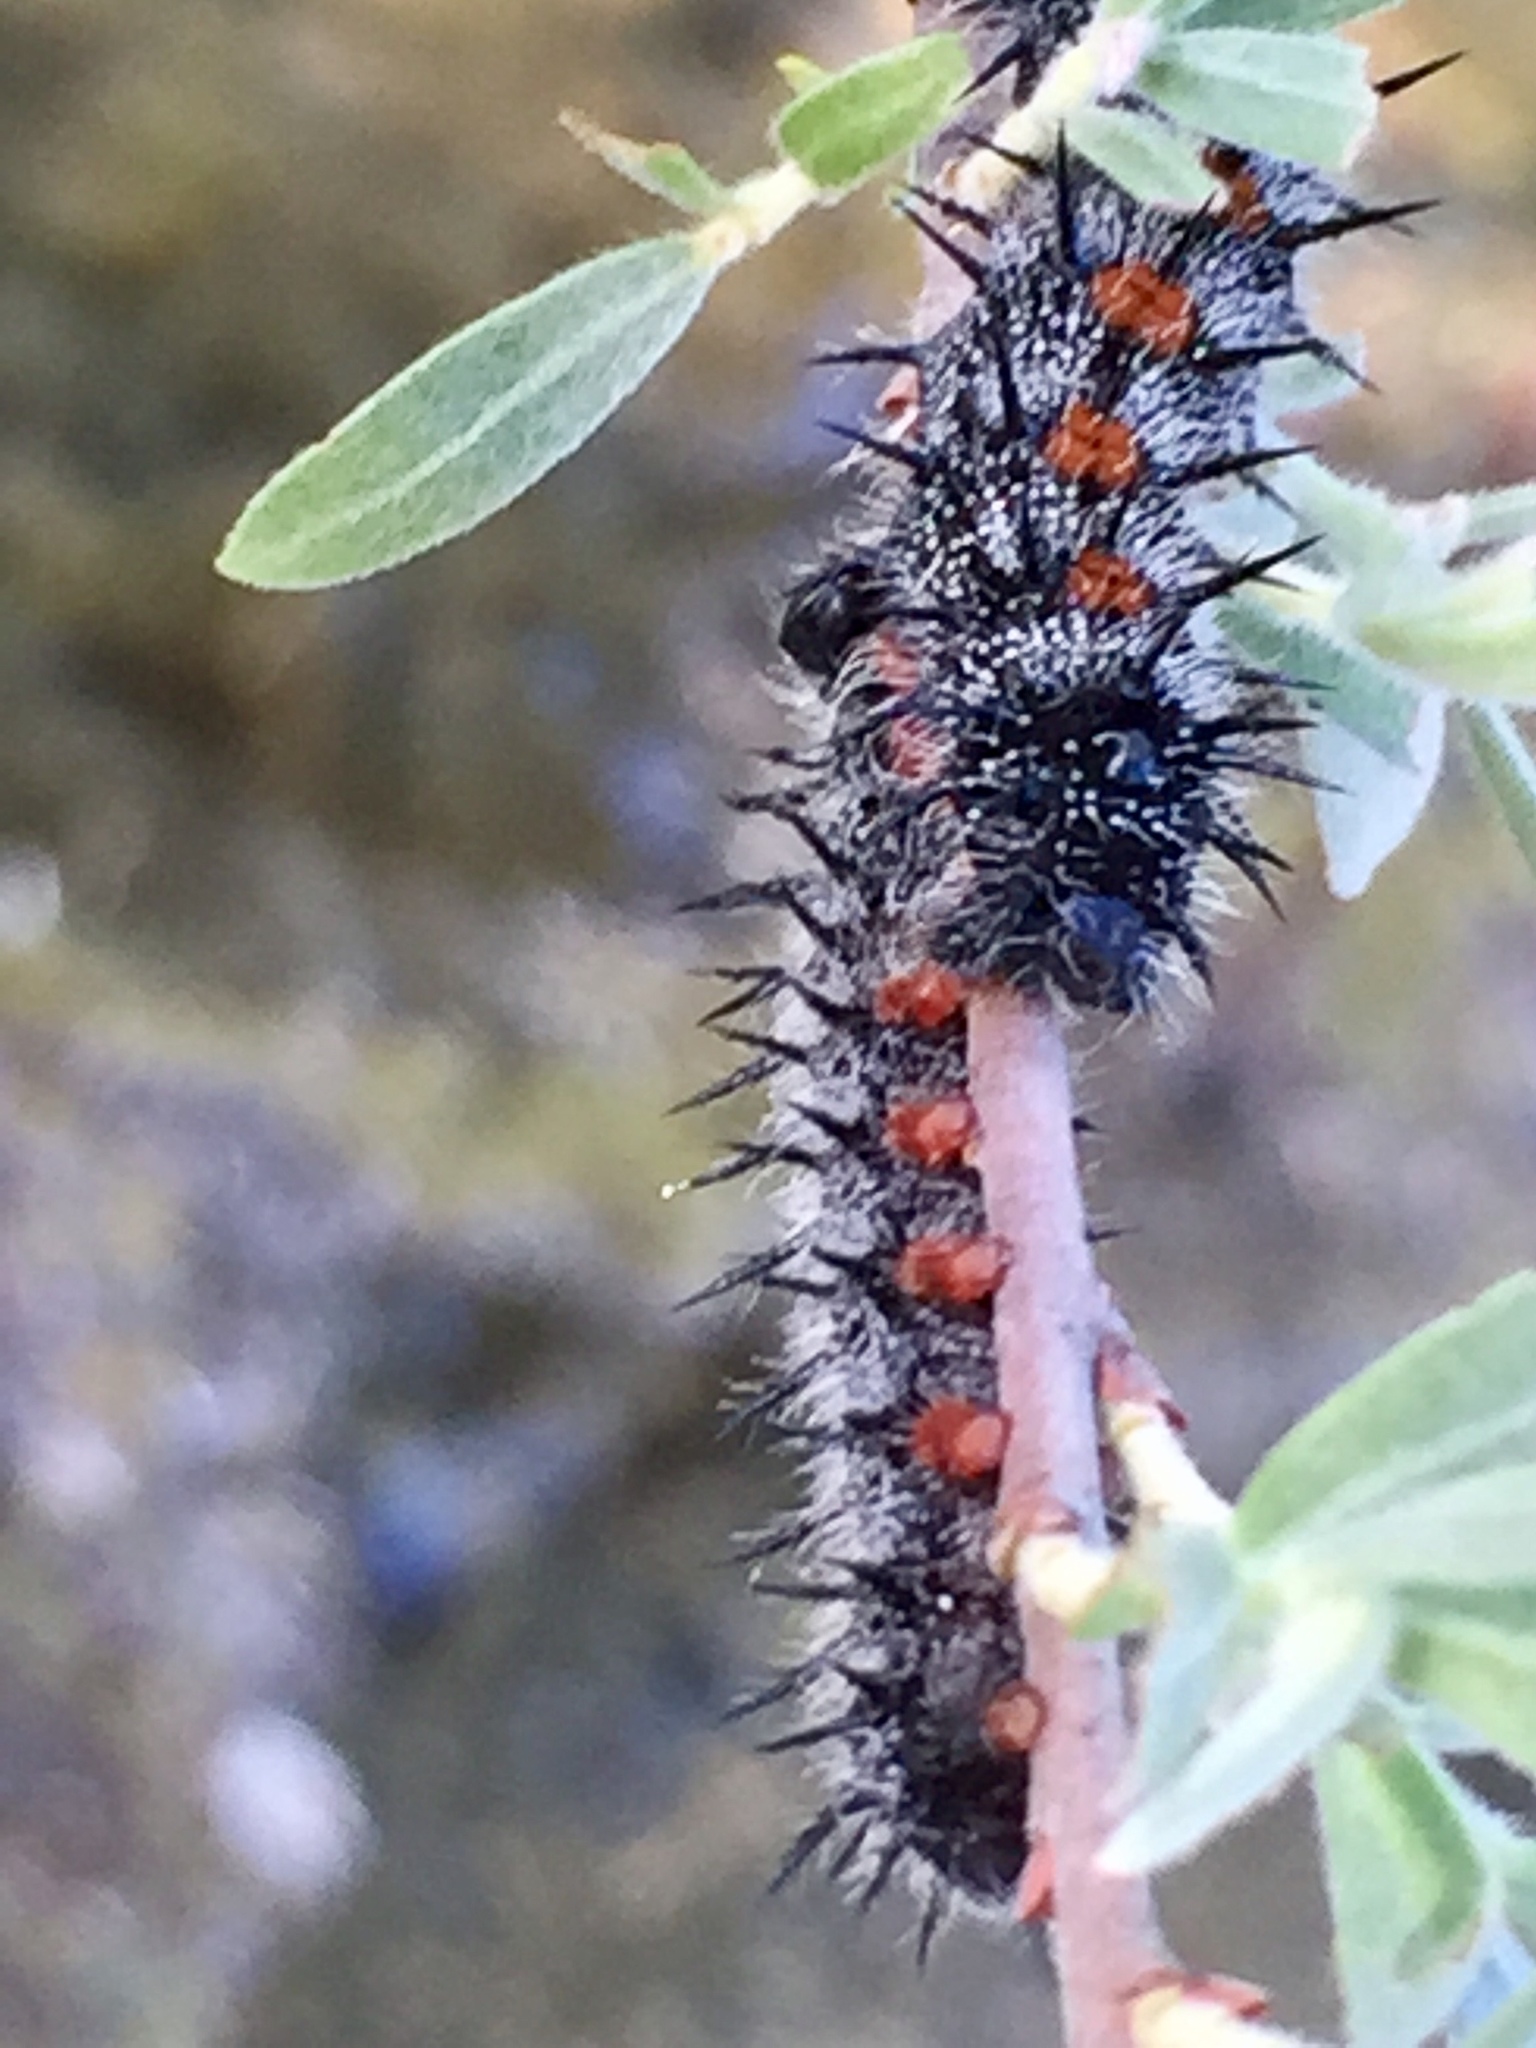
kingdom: Animalia
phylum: Arthropoda
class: Insecta
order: Lepidoptera
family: Nymphalidae
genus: Nymphalis
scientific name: Nymphalis antiopa
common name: Camberwell beauty
